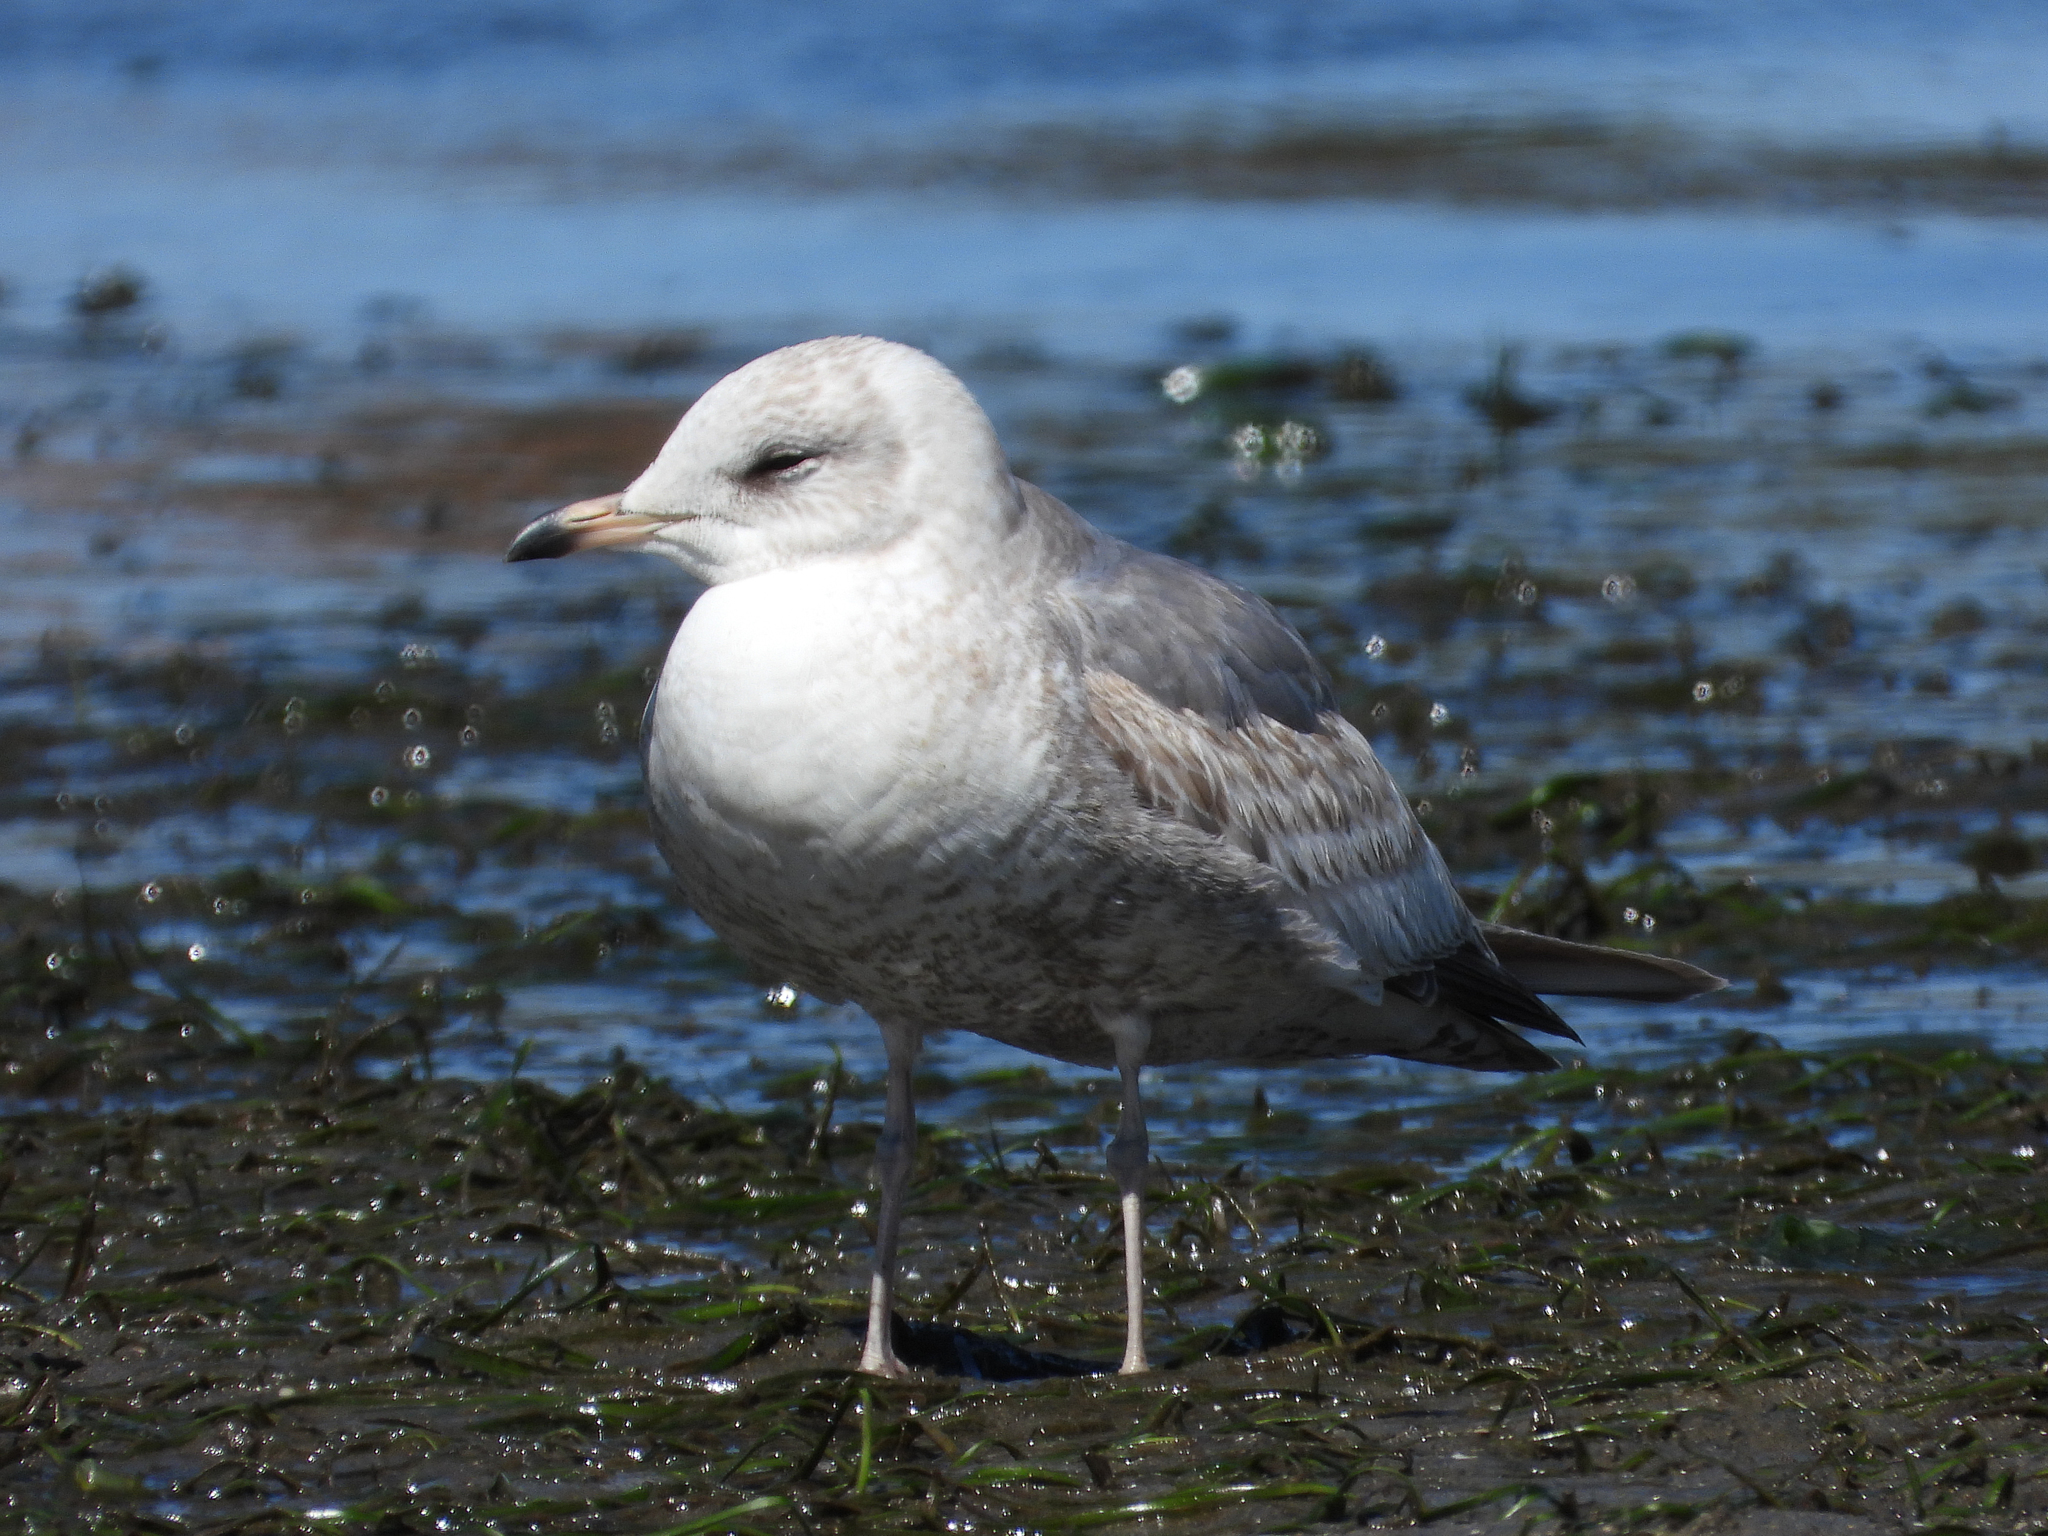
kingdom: Animalia
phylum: Chordata
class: Aves
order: Charadriiformes
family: Laridae
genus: Larus
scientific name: Larus brachyrhynchus
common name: Short-billed gull
